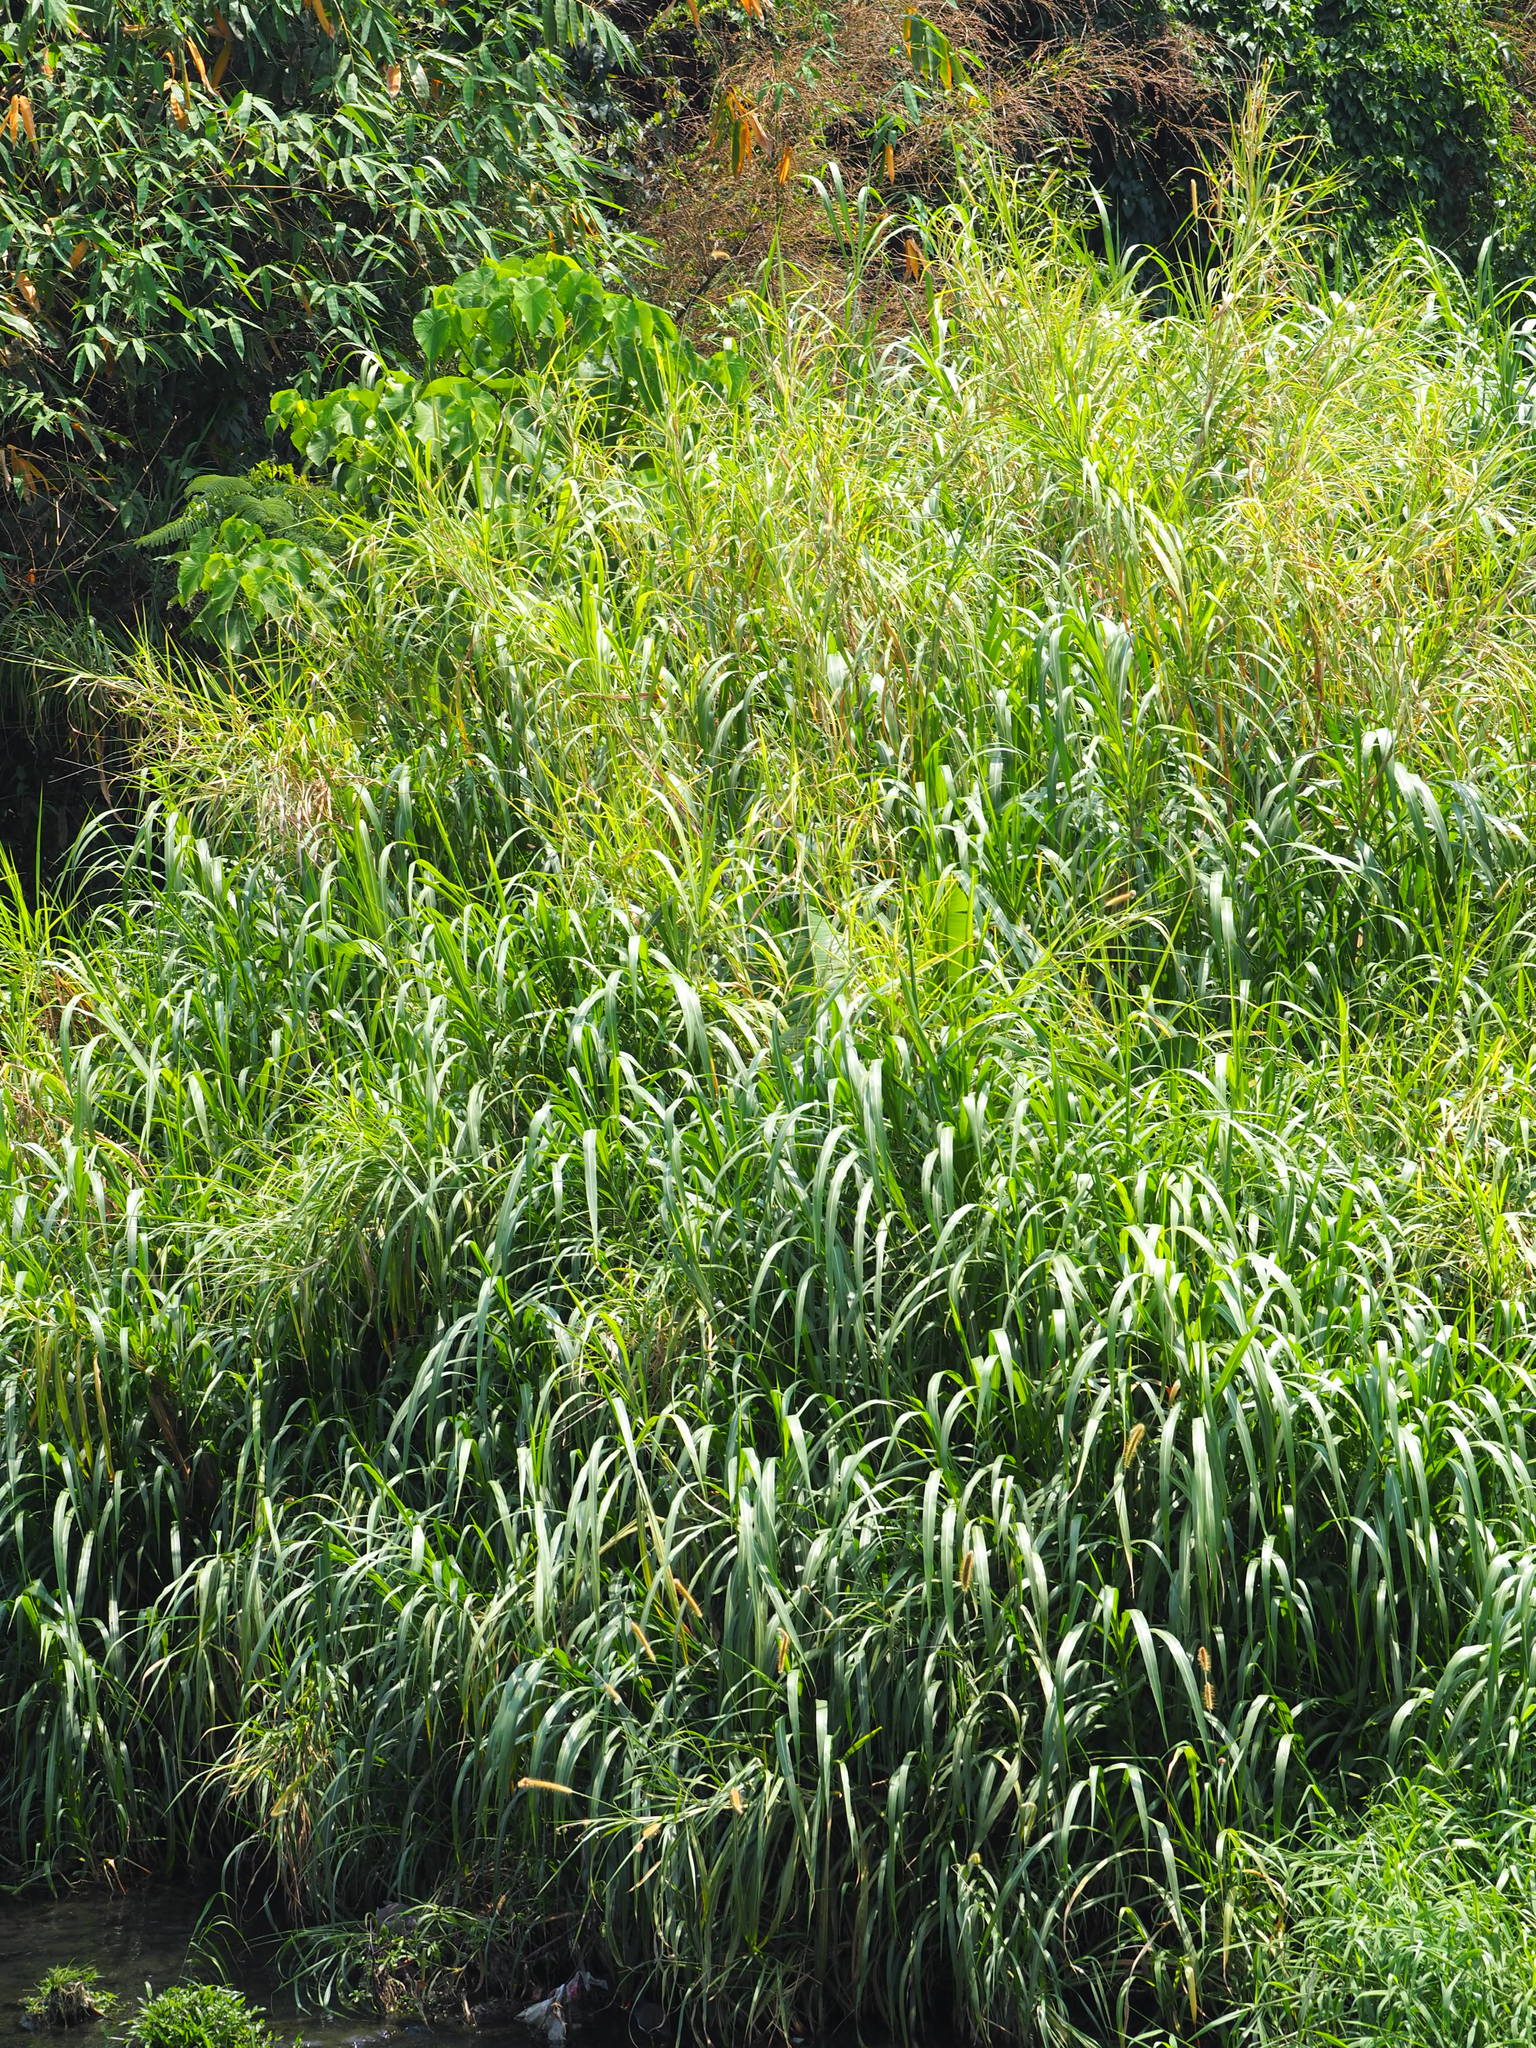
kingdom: Plantae
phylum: Tracheophyta
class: Liliopsida
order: Poales
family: Poaceae
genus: Cenchrus
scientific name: Cenchrus purpureus
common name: Elephant grass
